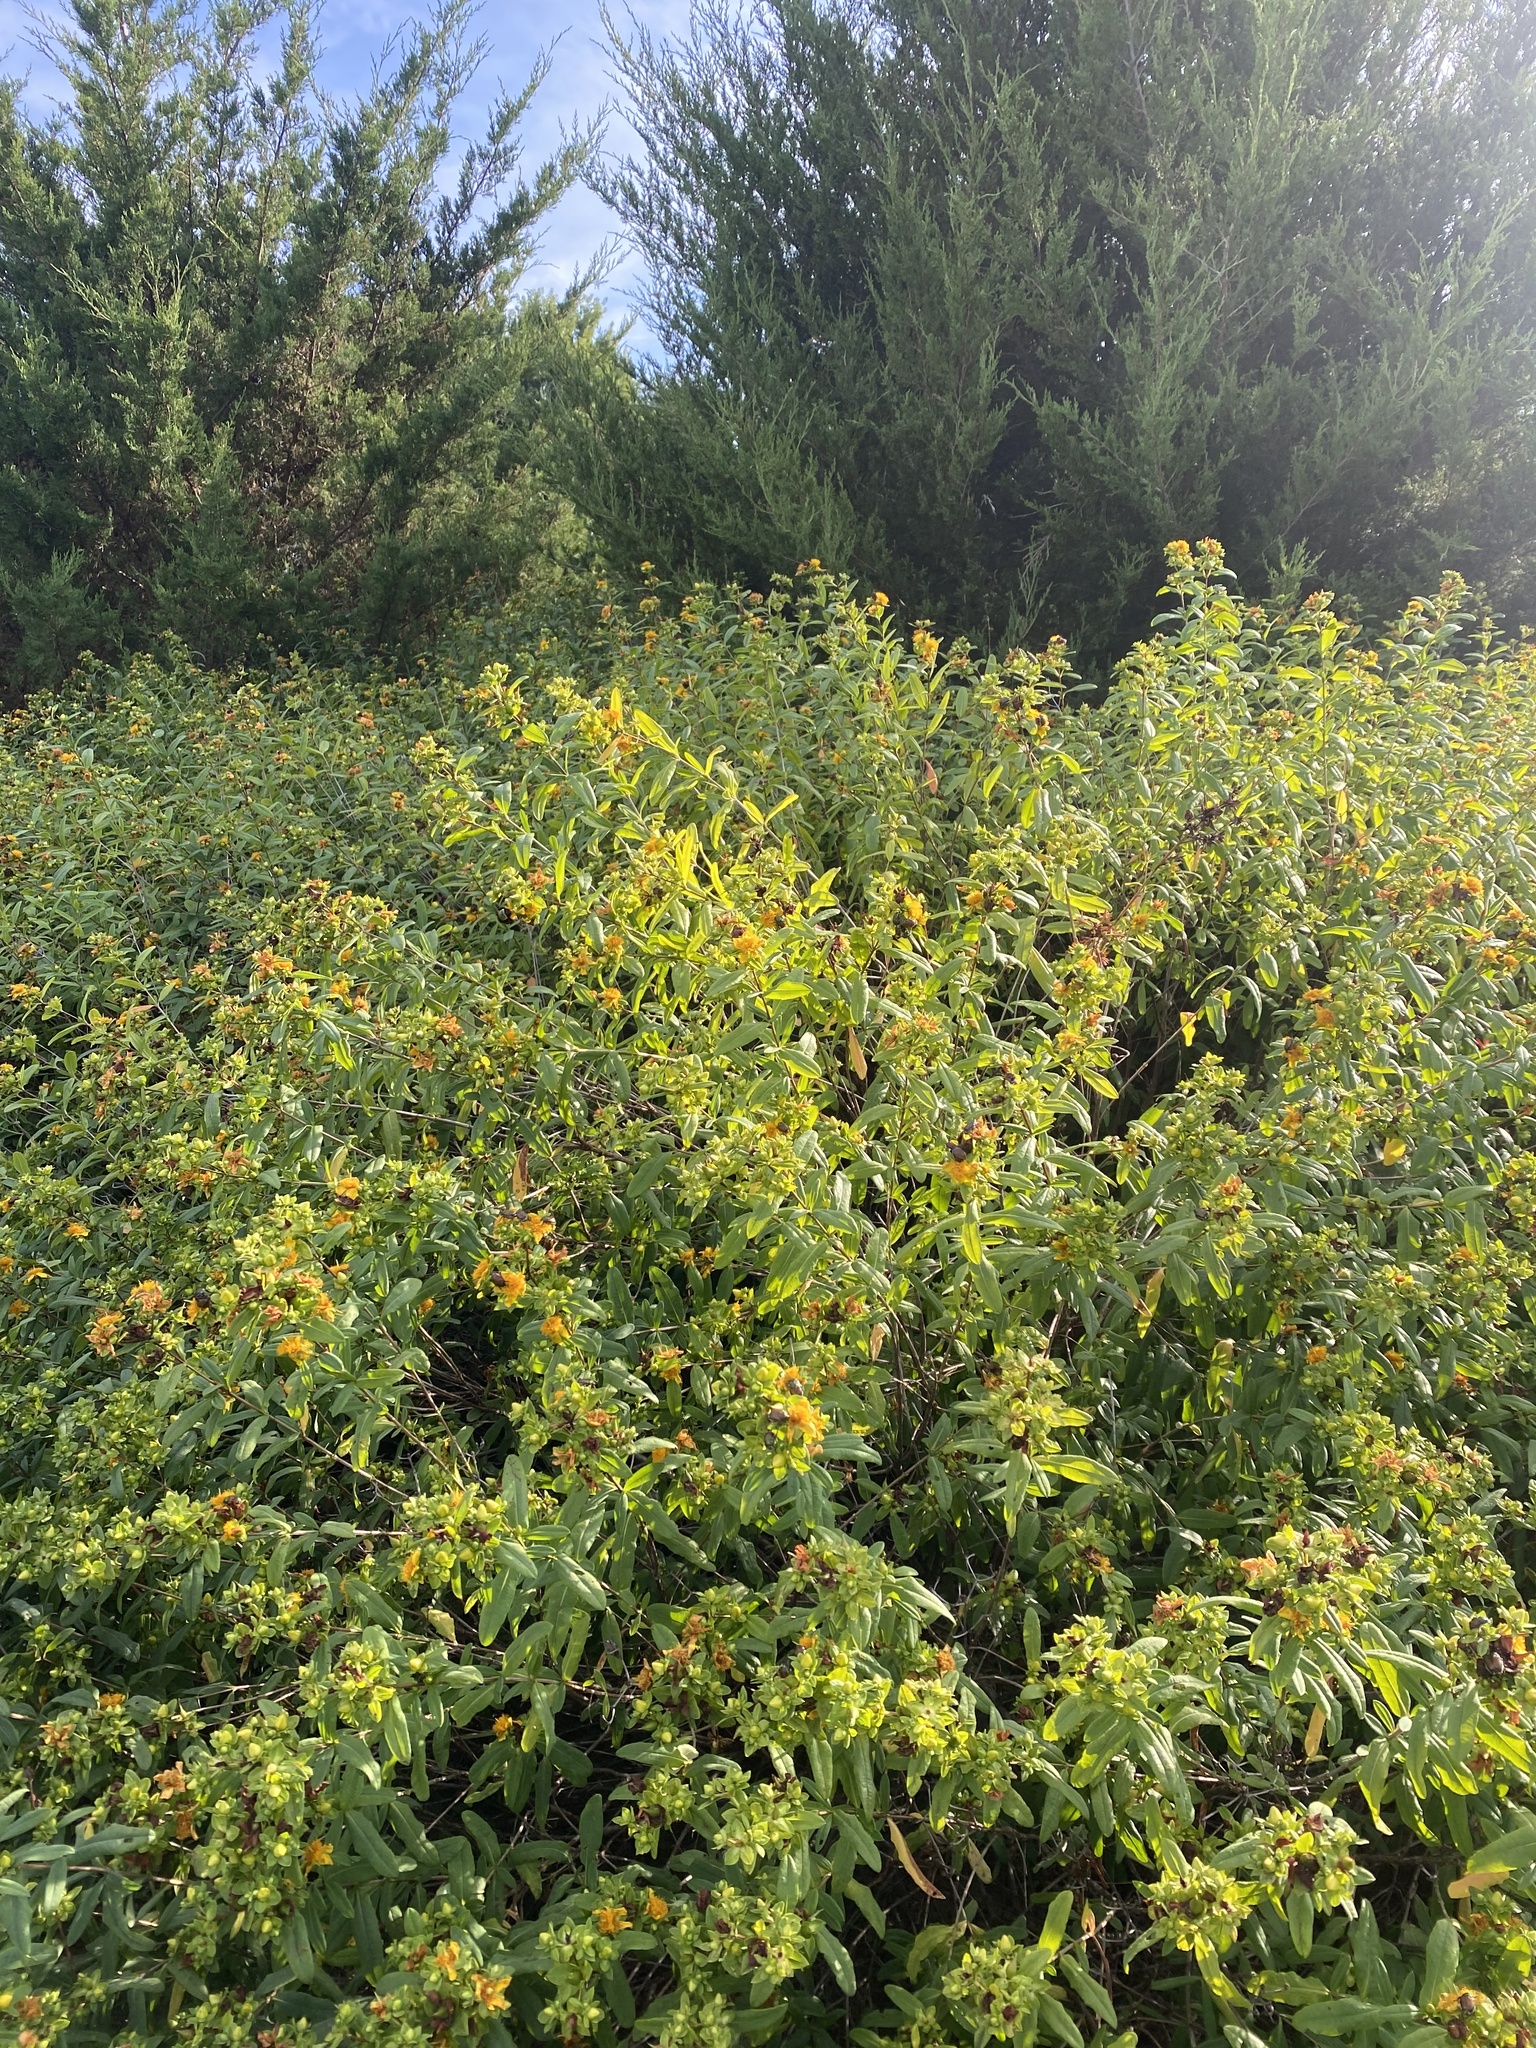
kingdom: Plantae
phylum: Tracheophyta
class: Magnoliopsida
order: Malpighiales
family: Hypericaceae
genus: Hypericum
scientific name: Hypericum prolificum
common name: Shrubby st. john's-wort
